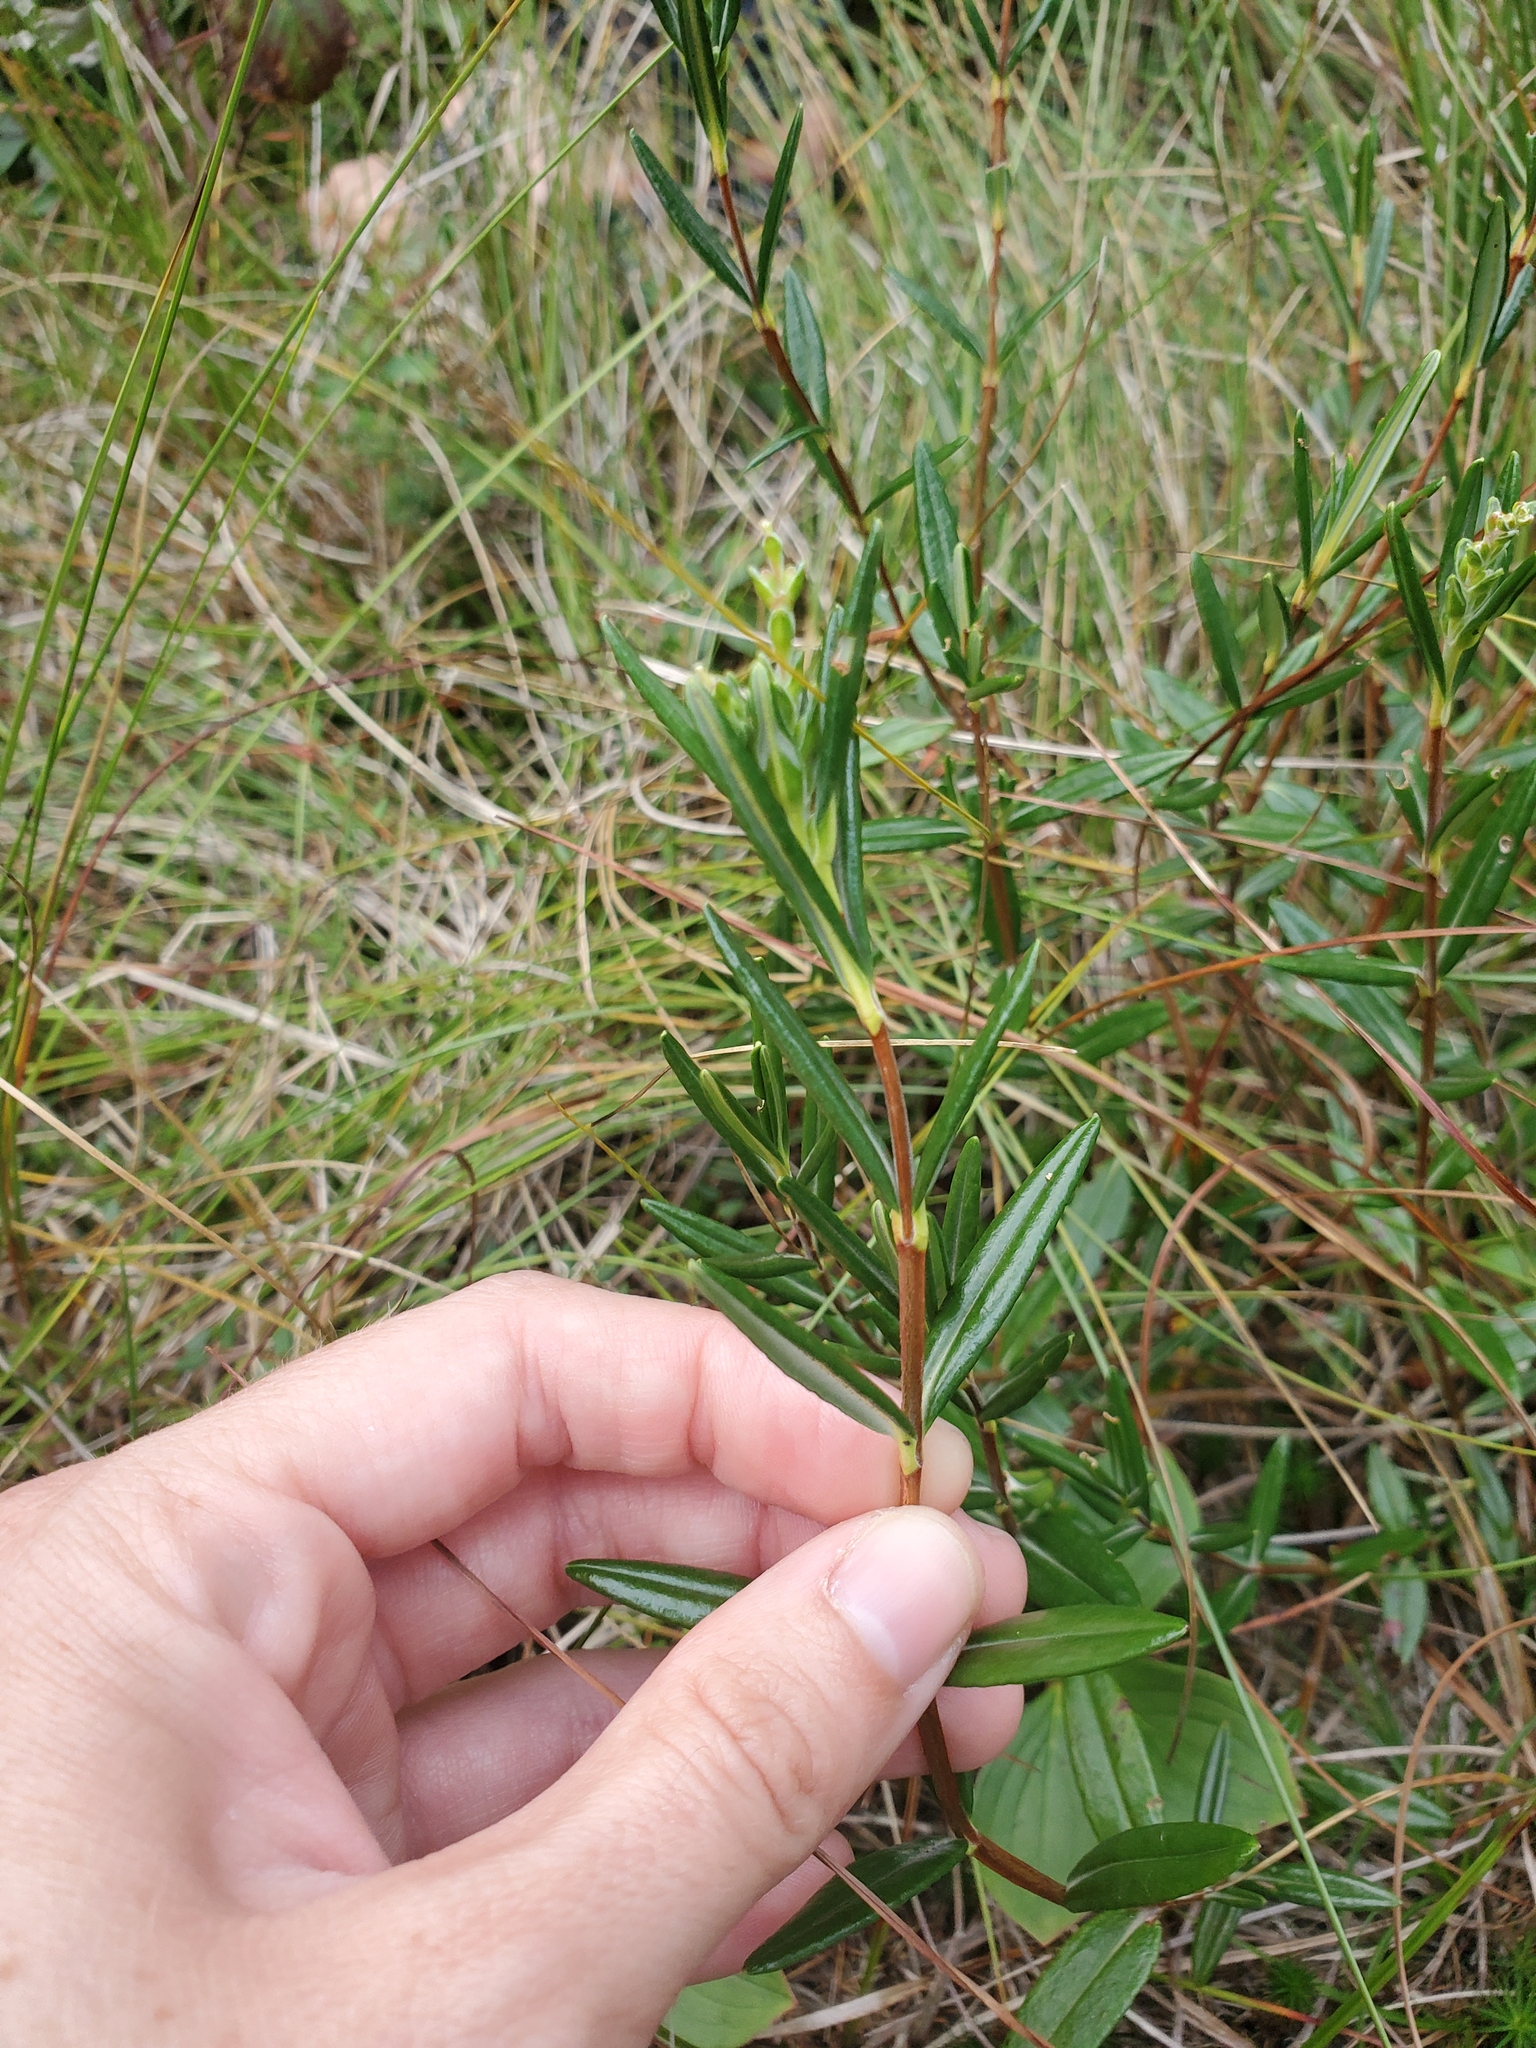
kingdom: Plantae
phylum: Tracheophyta
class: Magnoliopsida
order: Ericales
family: Ericaceae
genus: Kalmia
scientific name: Kalmia polifolia
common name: Bog-laurel
